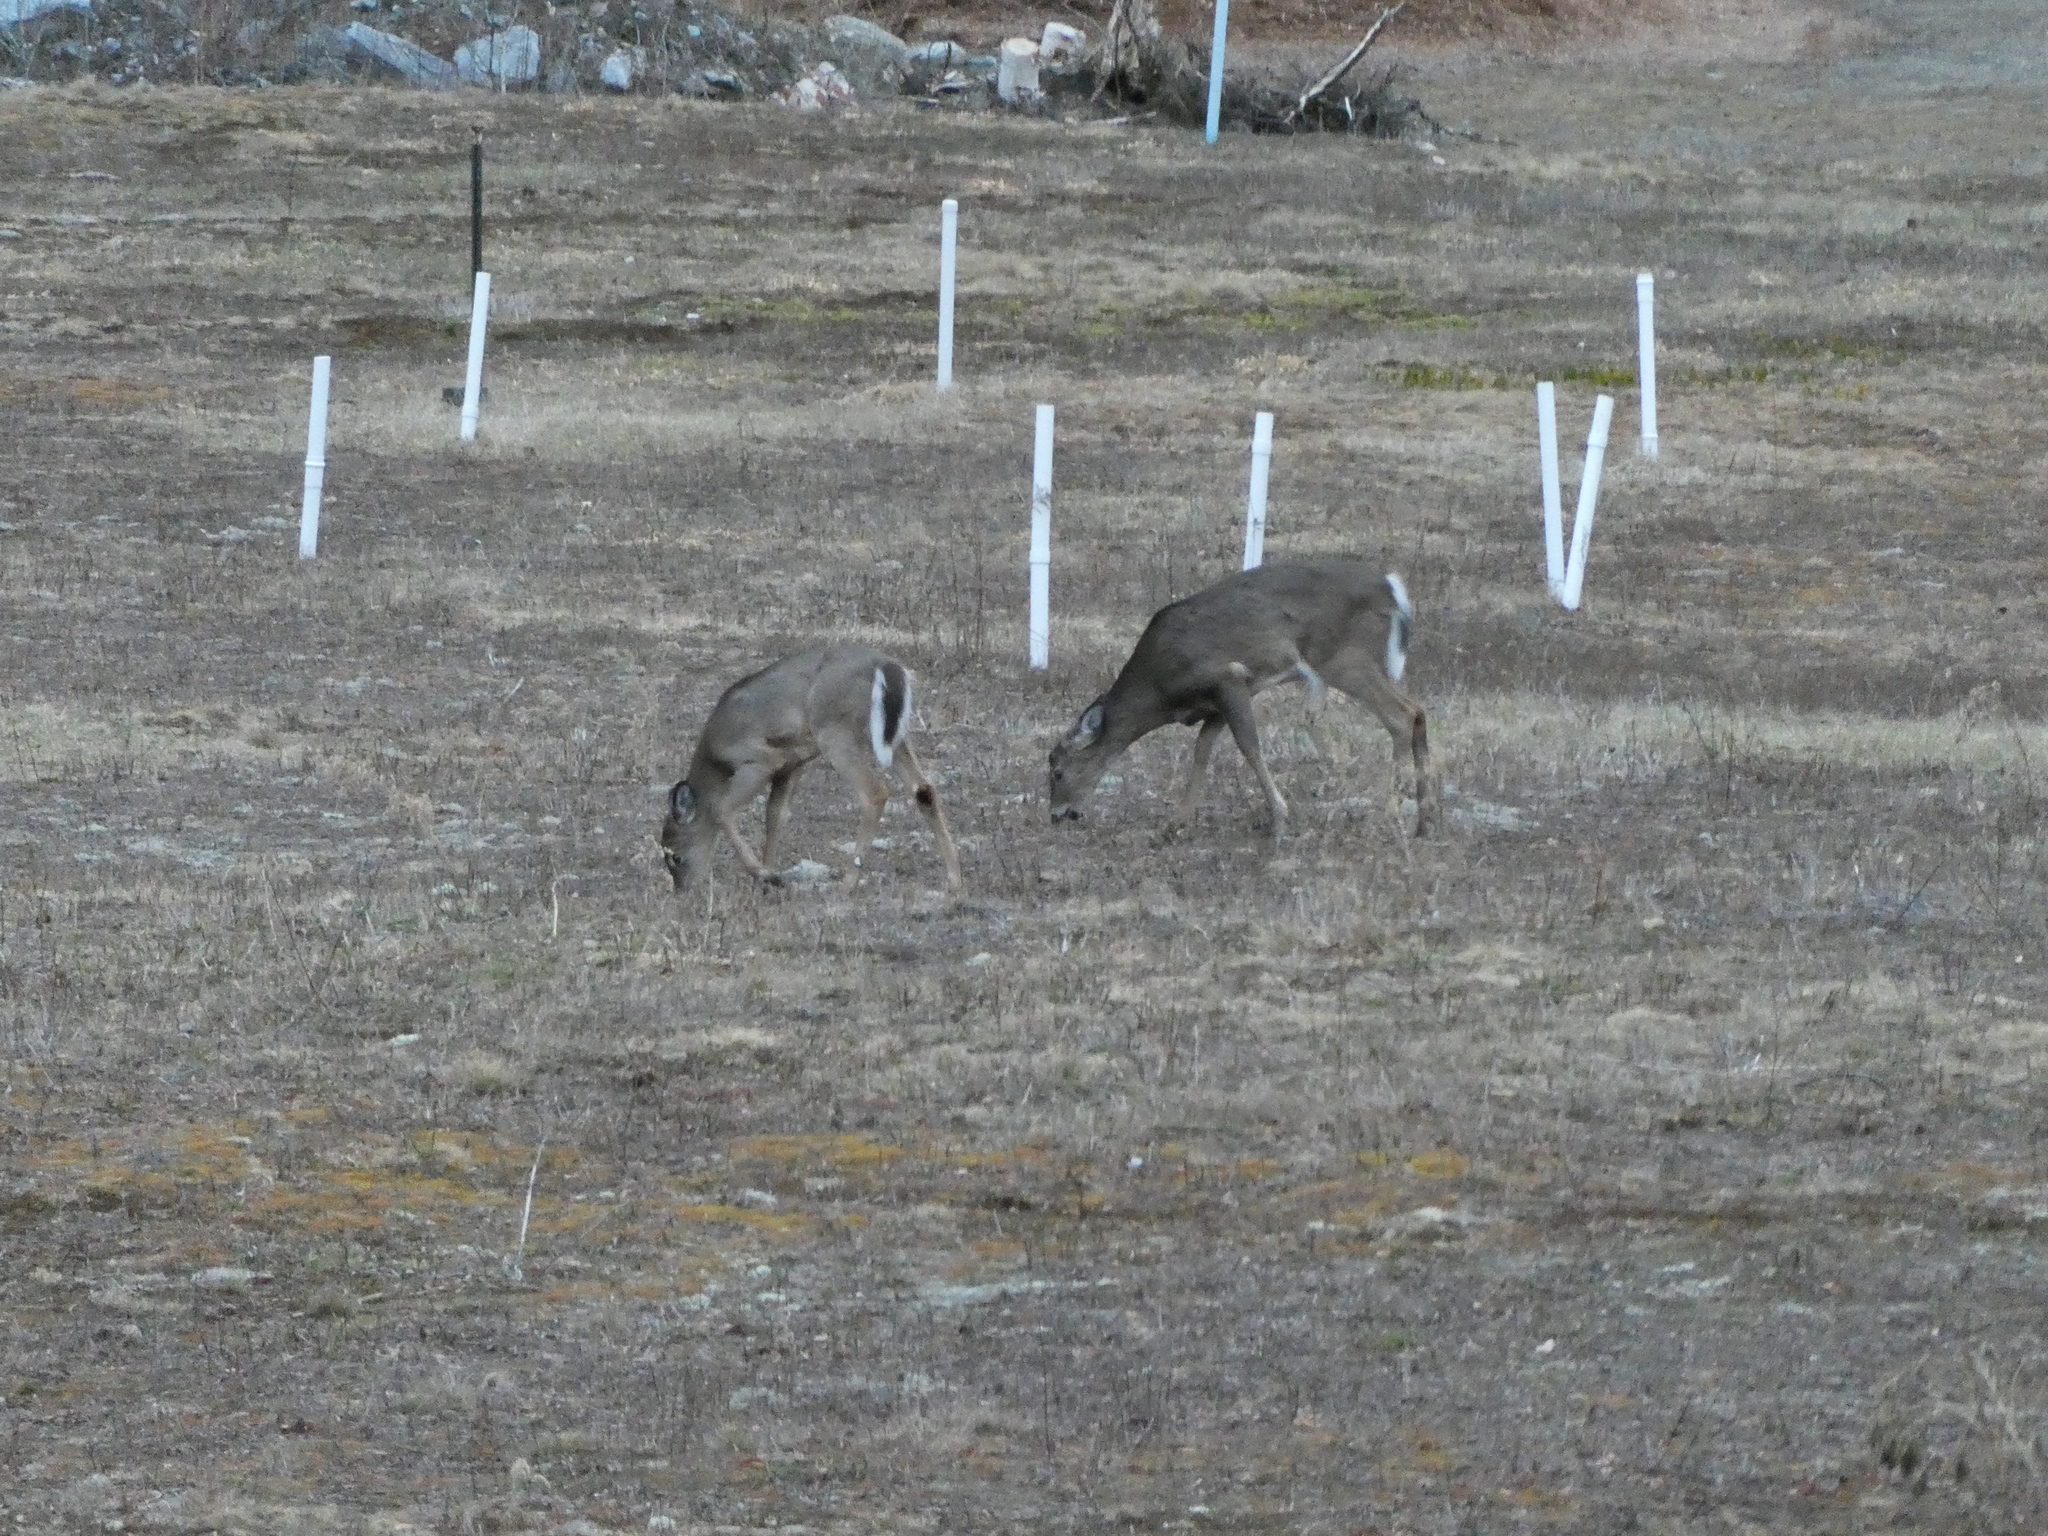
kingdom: Animalia
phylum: Chordata
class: Mammalia
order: Artiodactyla
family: Cervidae
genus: Odocoileus
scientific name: Odocoileus virginianus
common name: White-tailed deer
